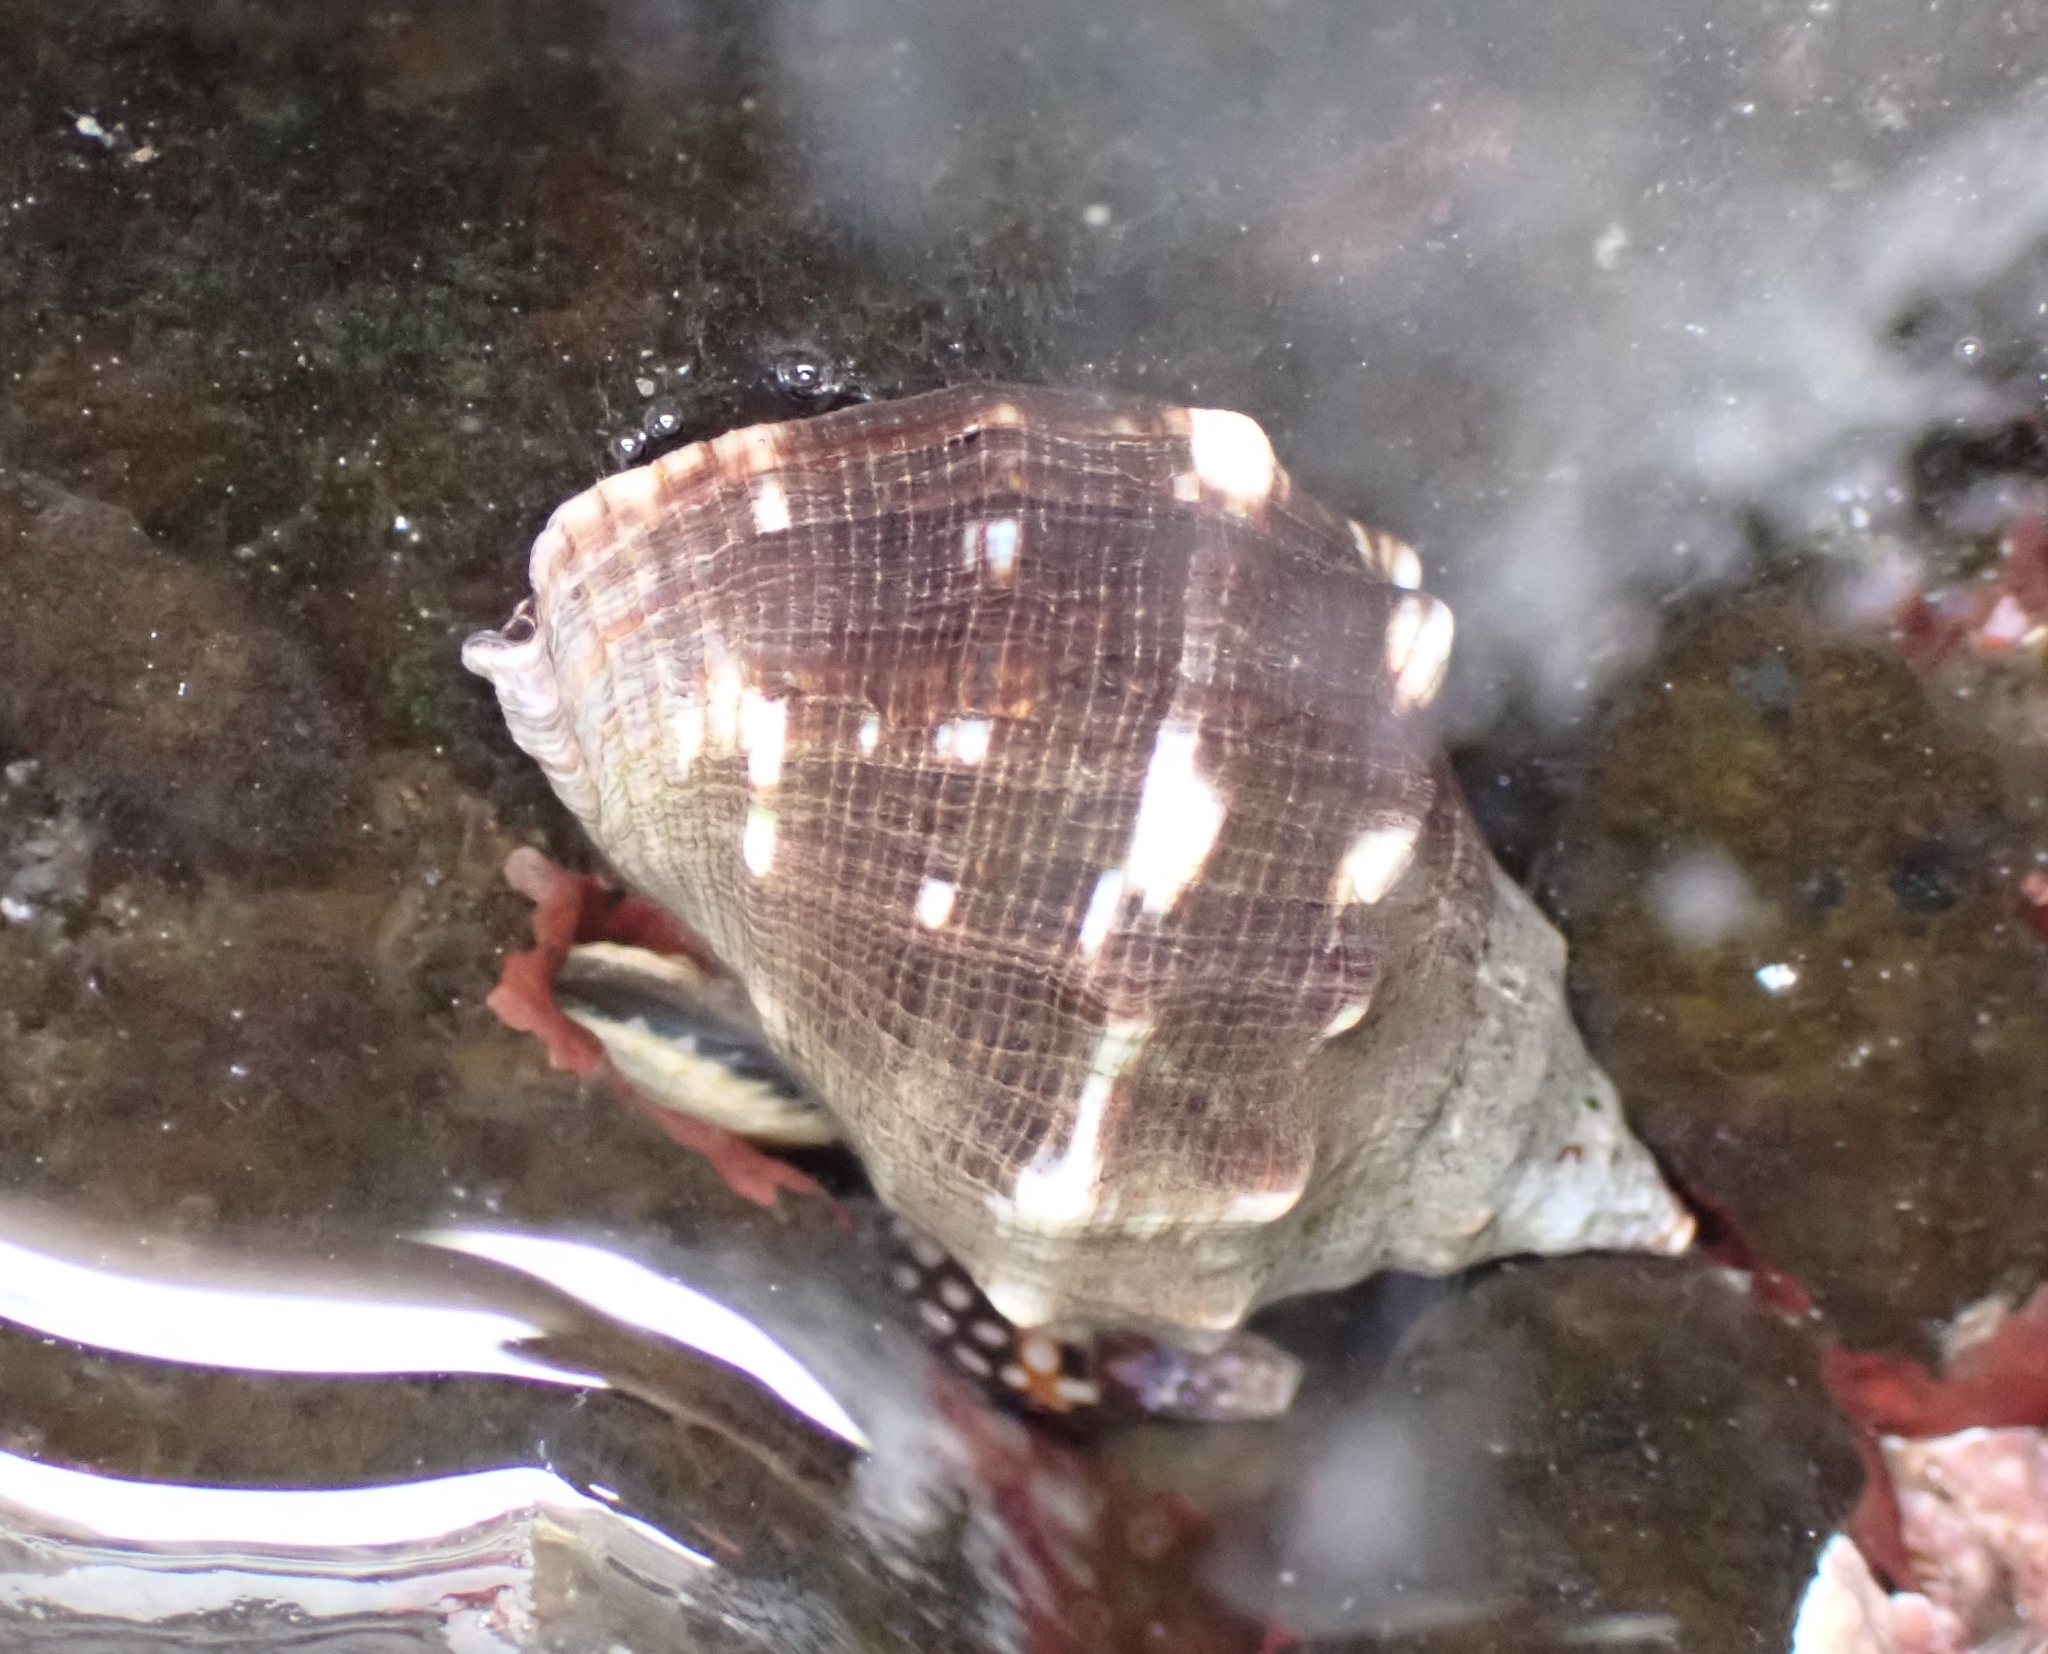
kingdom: Animalia
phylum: Mollusca
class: Gastropoda
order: Neogastropoda
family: Muricidae
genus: Stramonita
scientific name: Stramonita haemastoma
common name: Florida dog winkle
